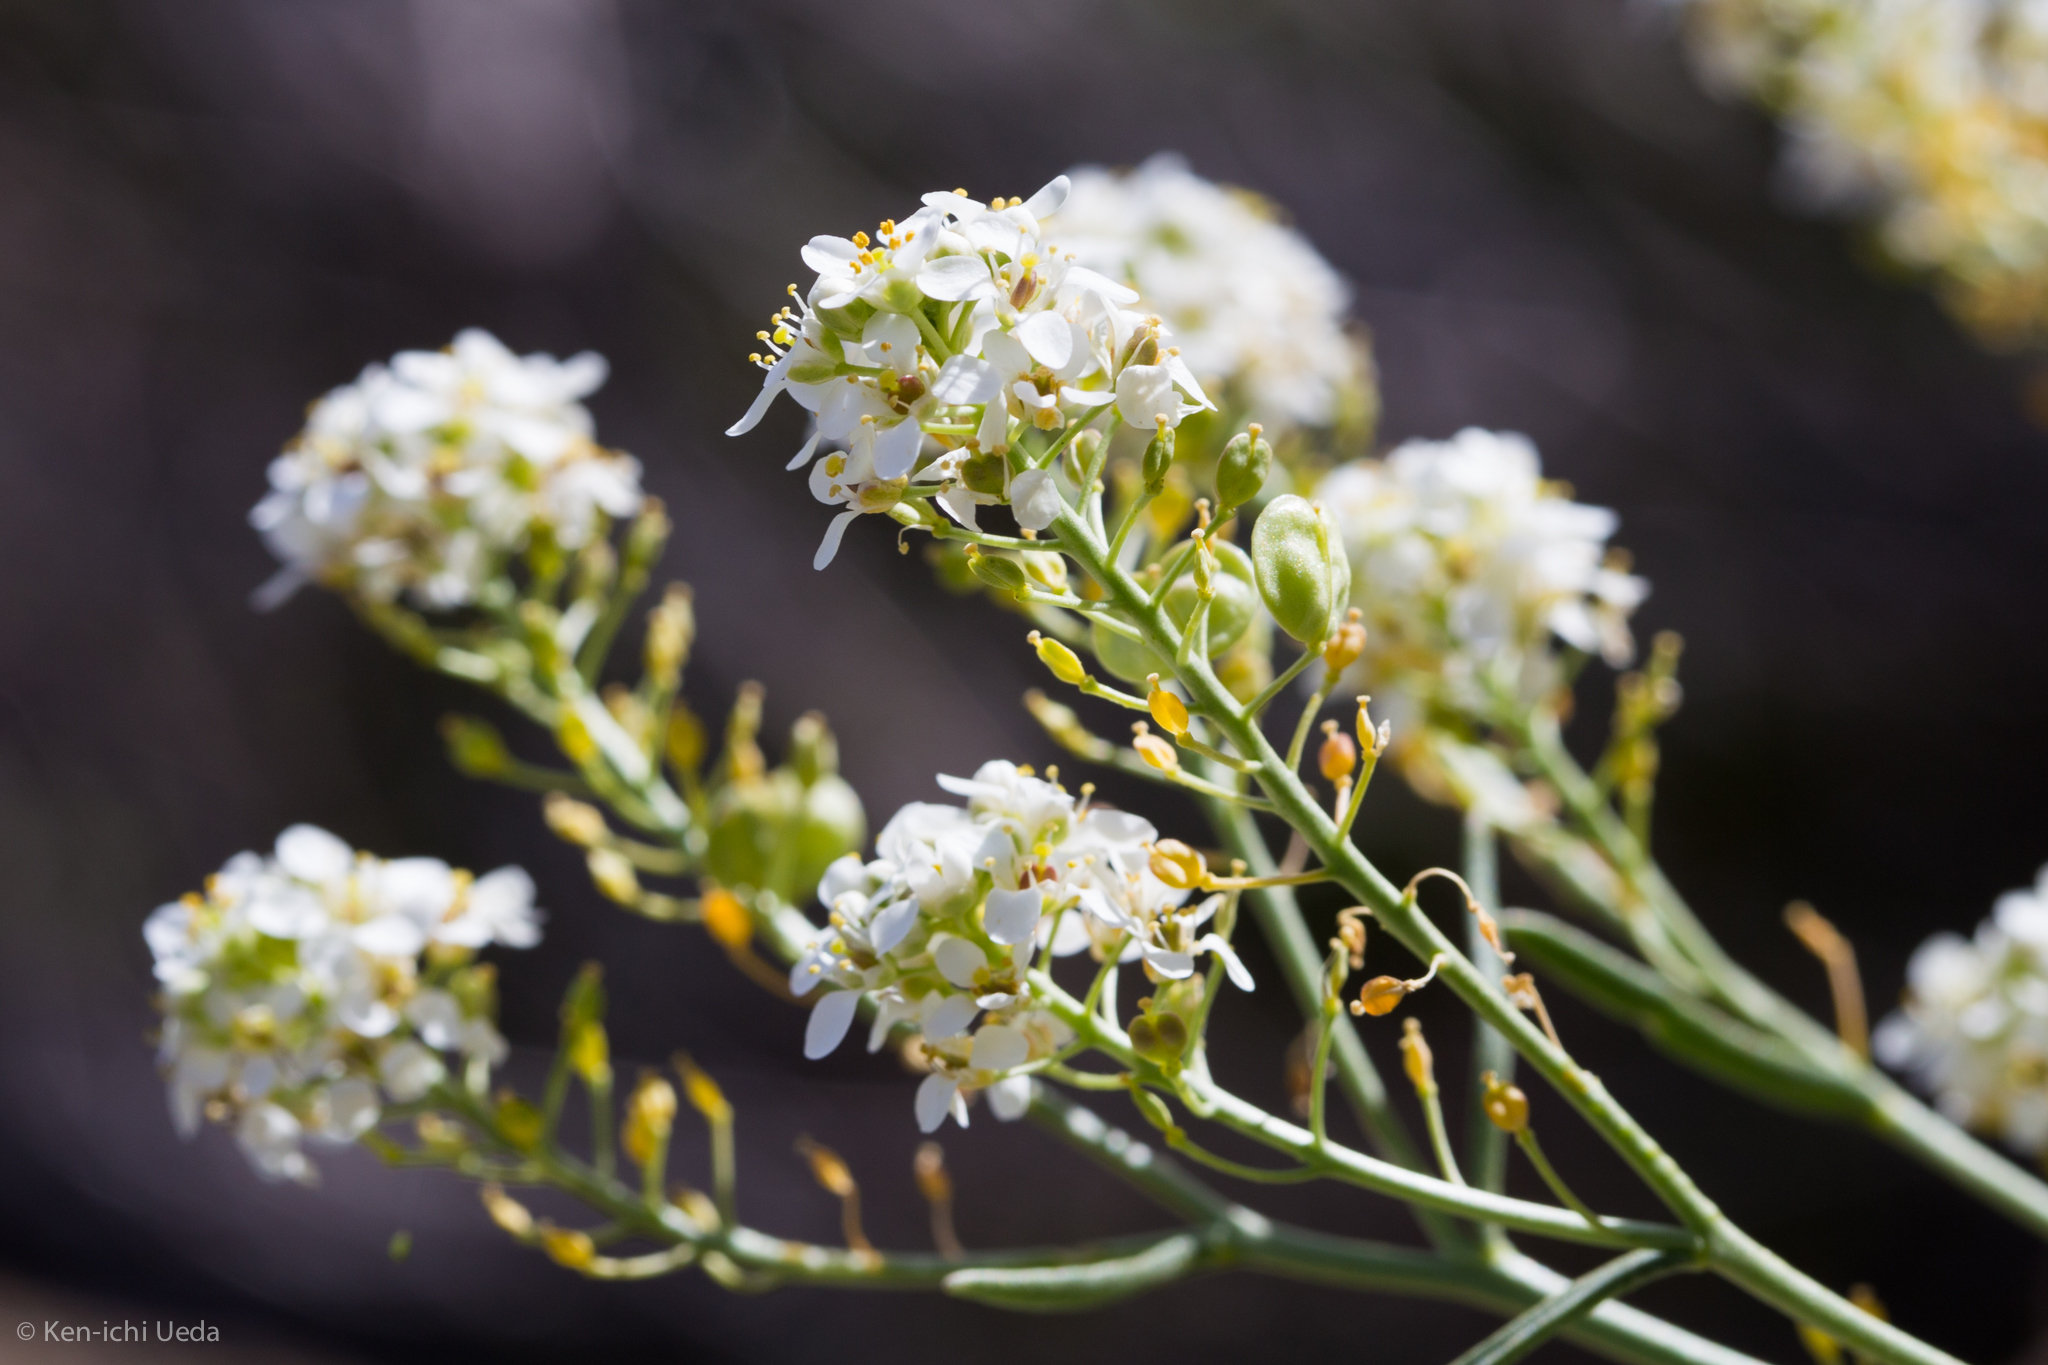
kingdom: Plantae
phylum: Tracheophyta
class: Magnoliopsida
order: Brassicales
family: Brassicaceae
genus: Lepidium
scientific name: Lepidium fremontii
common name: Fremont's pepperwort
